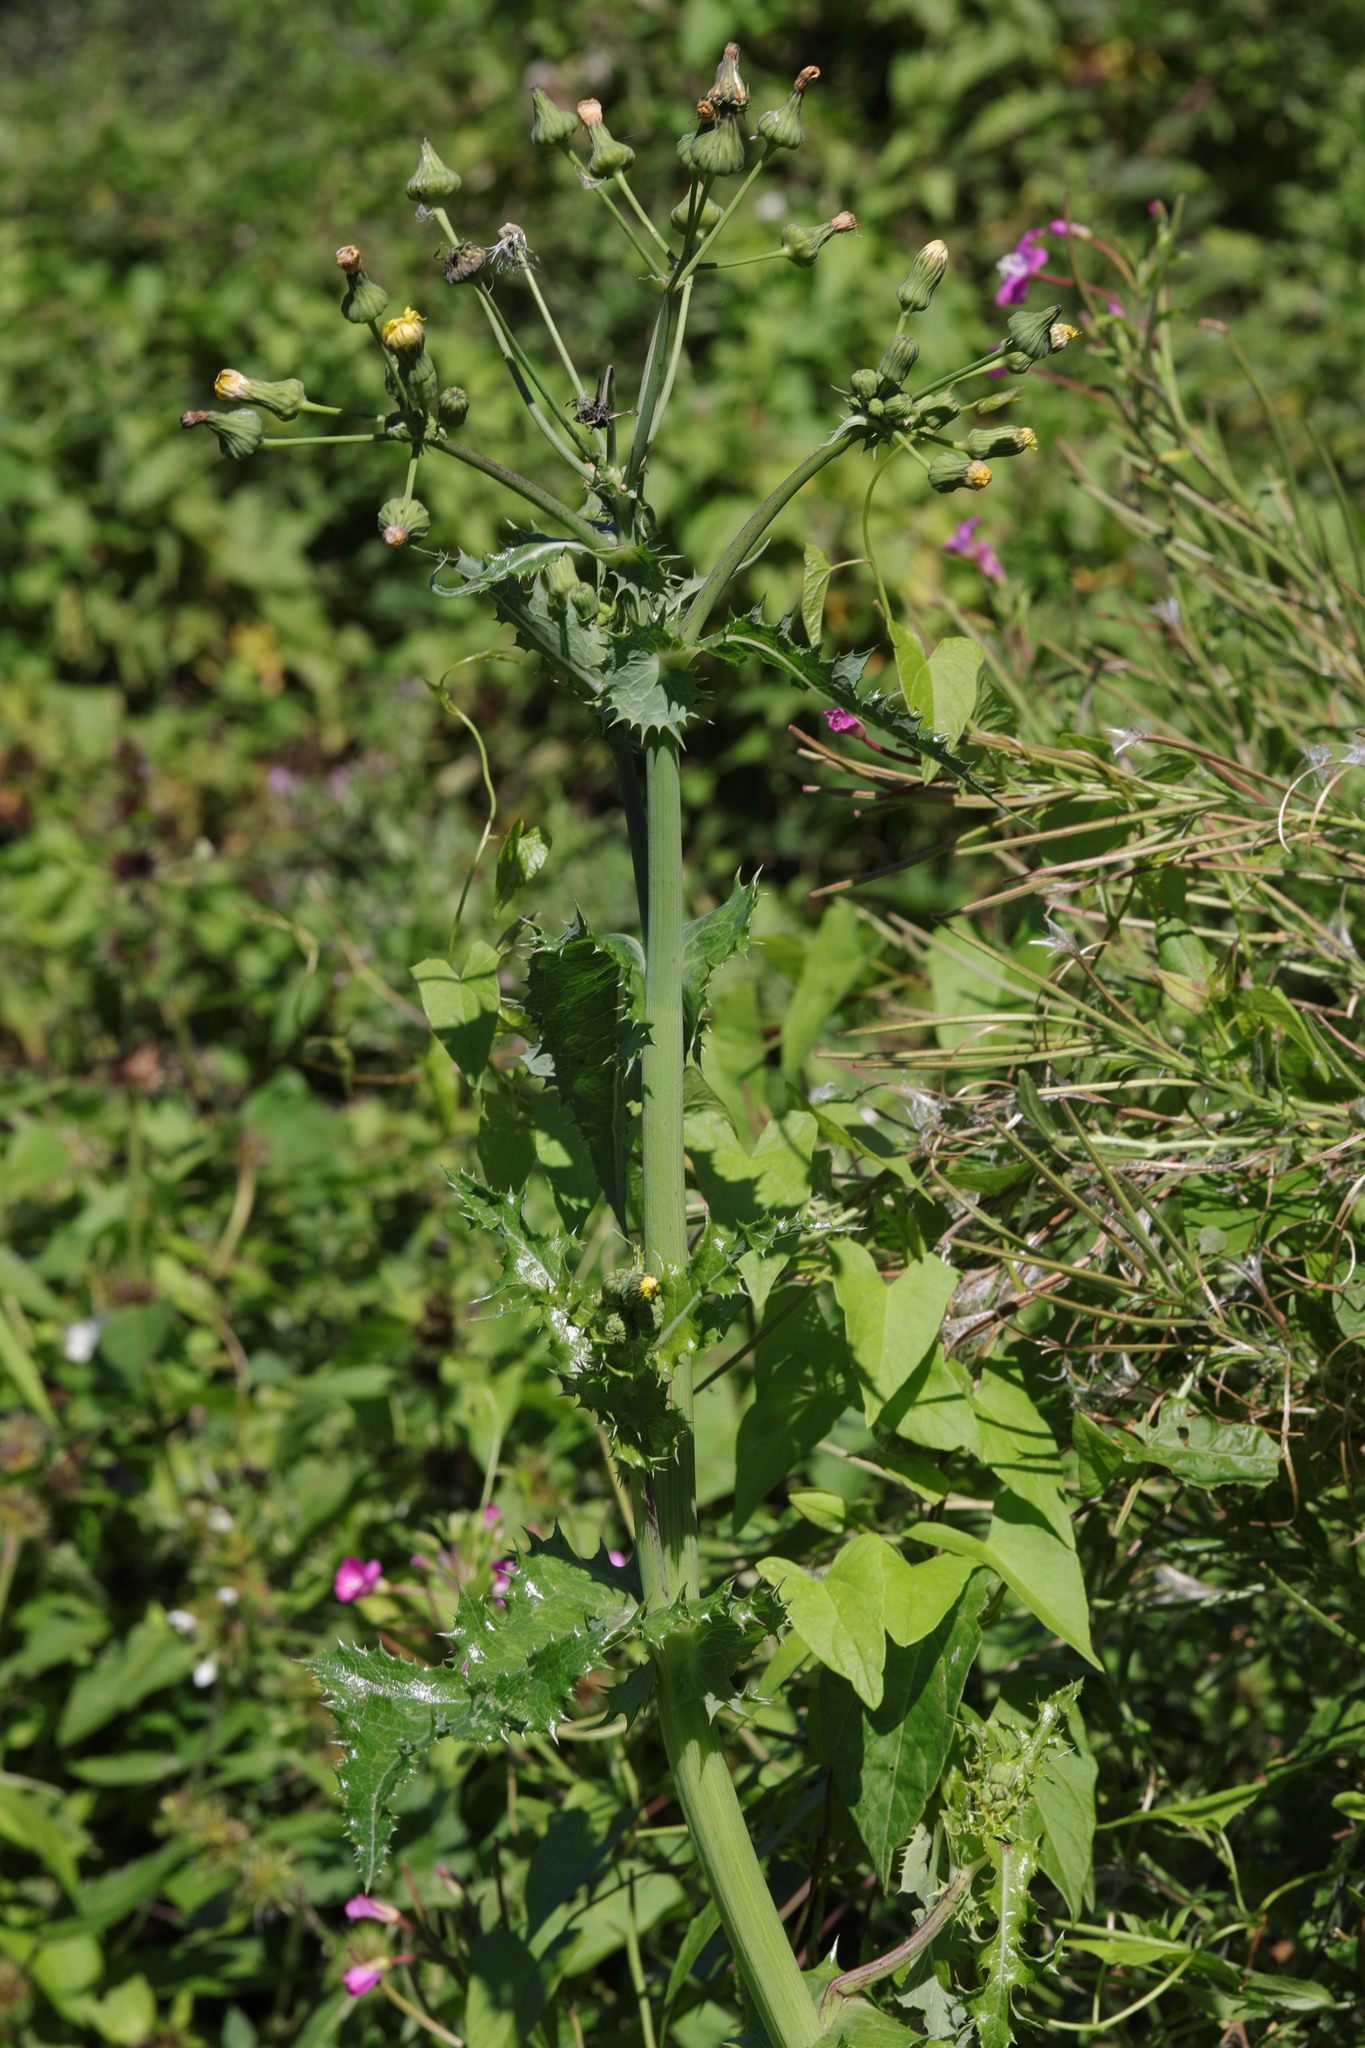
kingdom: Plantae
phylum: Tracheophyta
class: Magnoliopsida
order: Asterales
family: Asteraceae
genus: Sonchus
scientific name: Sonchus asper
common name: Prickly sow-thistle
